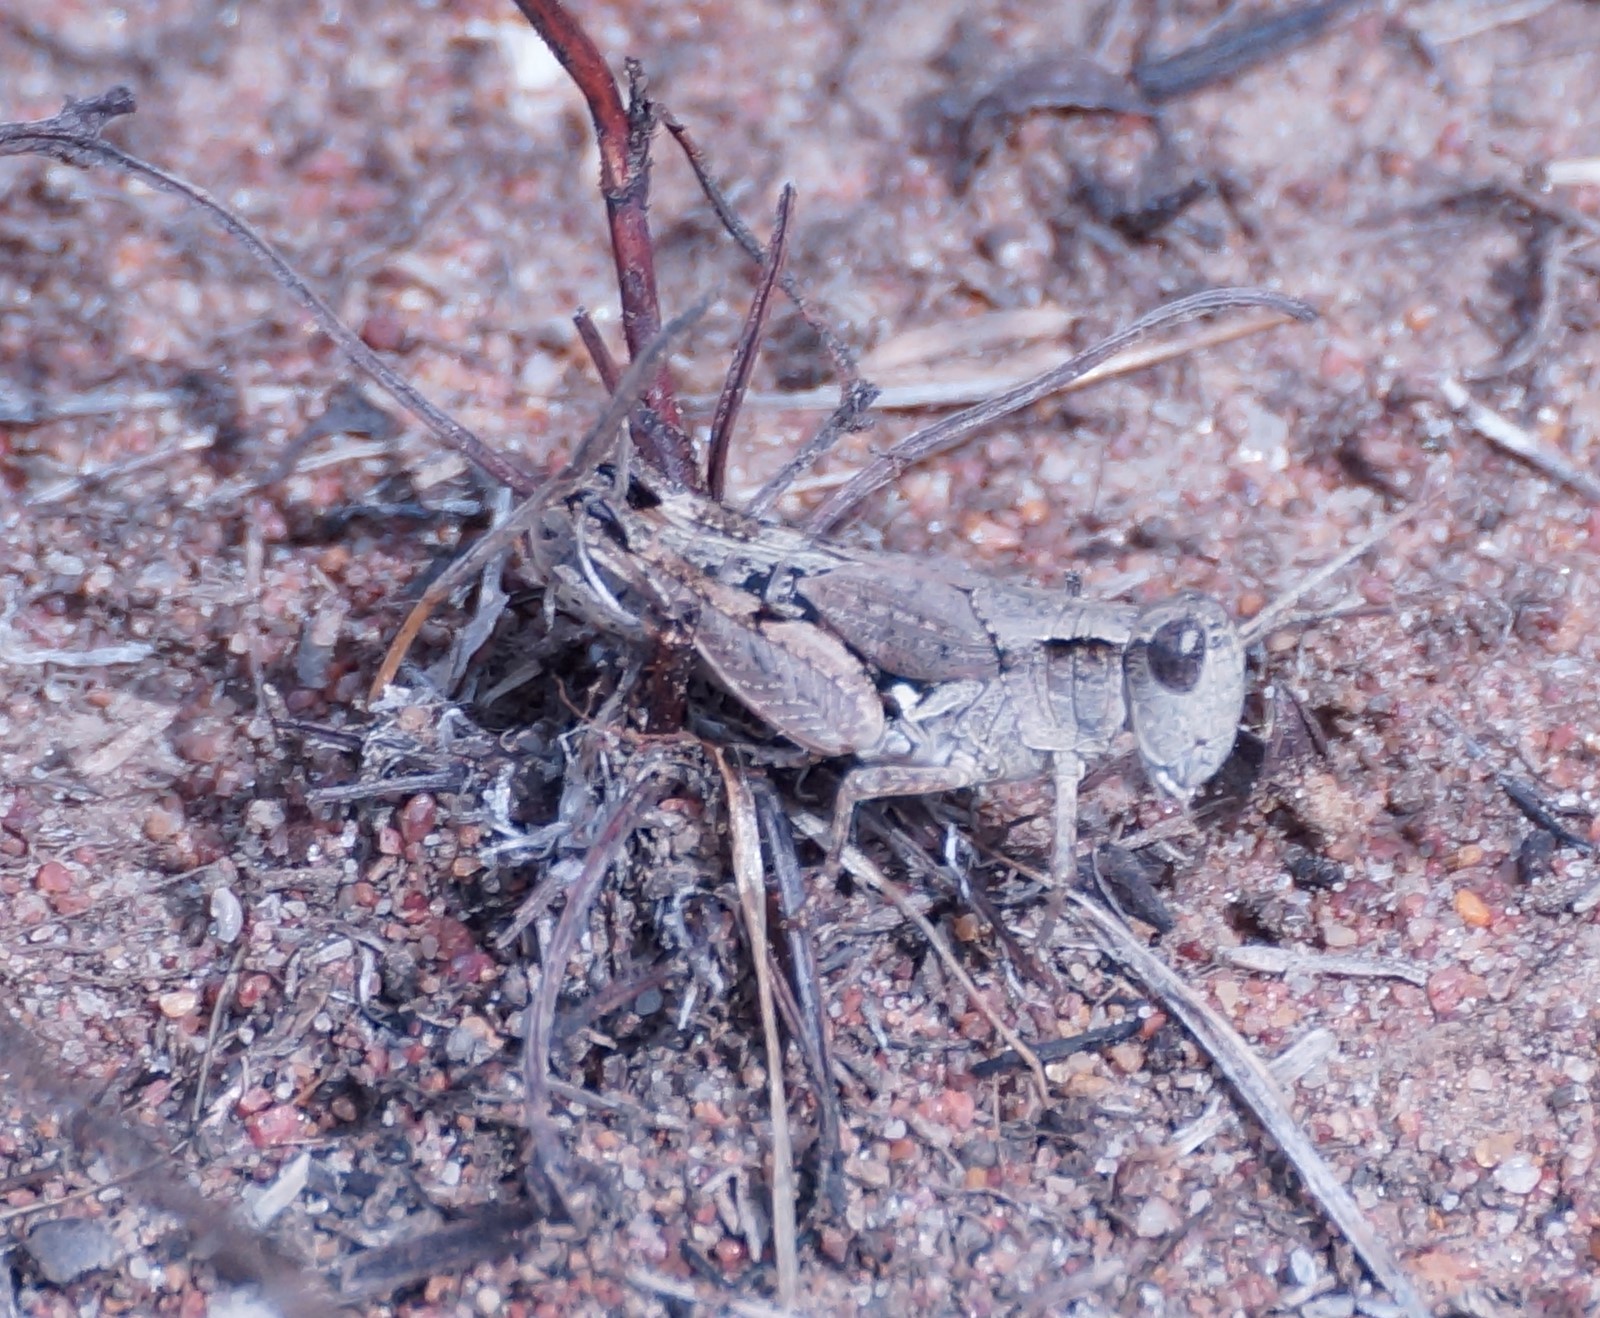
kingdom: Animalia
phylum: Arthropoda
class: Insecta
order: Orthoptera
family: Acrididae
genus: Phaulacridium
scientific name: Phaulacridium vittatum
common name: Wingless grasshopper
